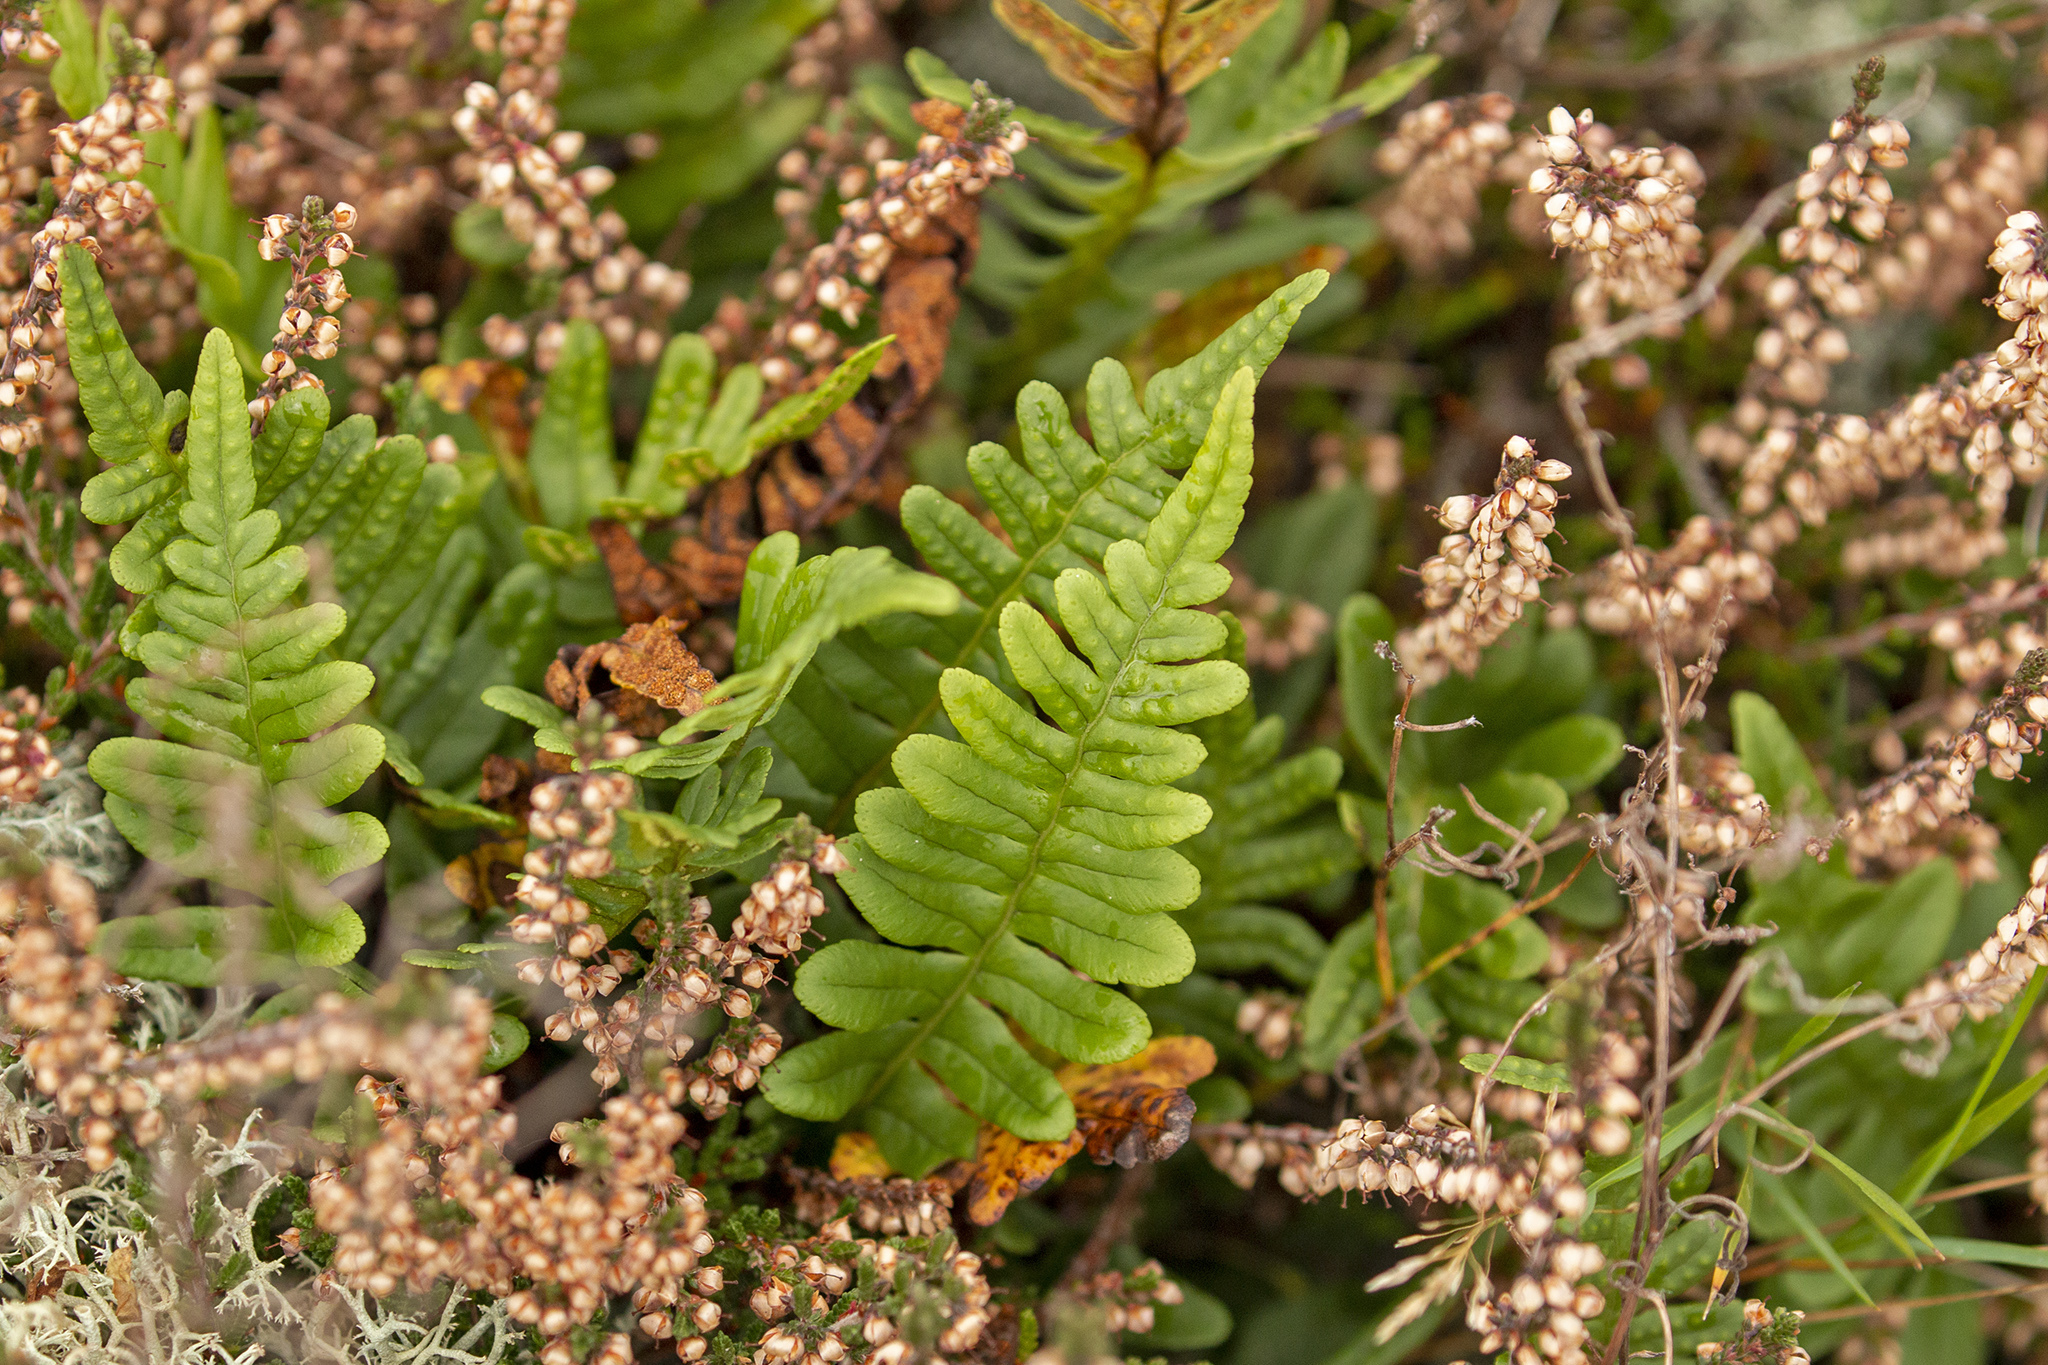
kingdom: Plantae
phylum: Tracheophyta
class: Polypodiopsida
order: Polypodiales
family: Polypodiaceae
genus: Polypodium
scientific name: Polypodium vulgare
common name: Common polypody
